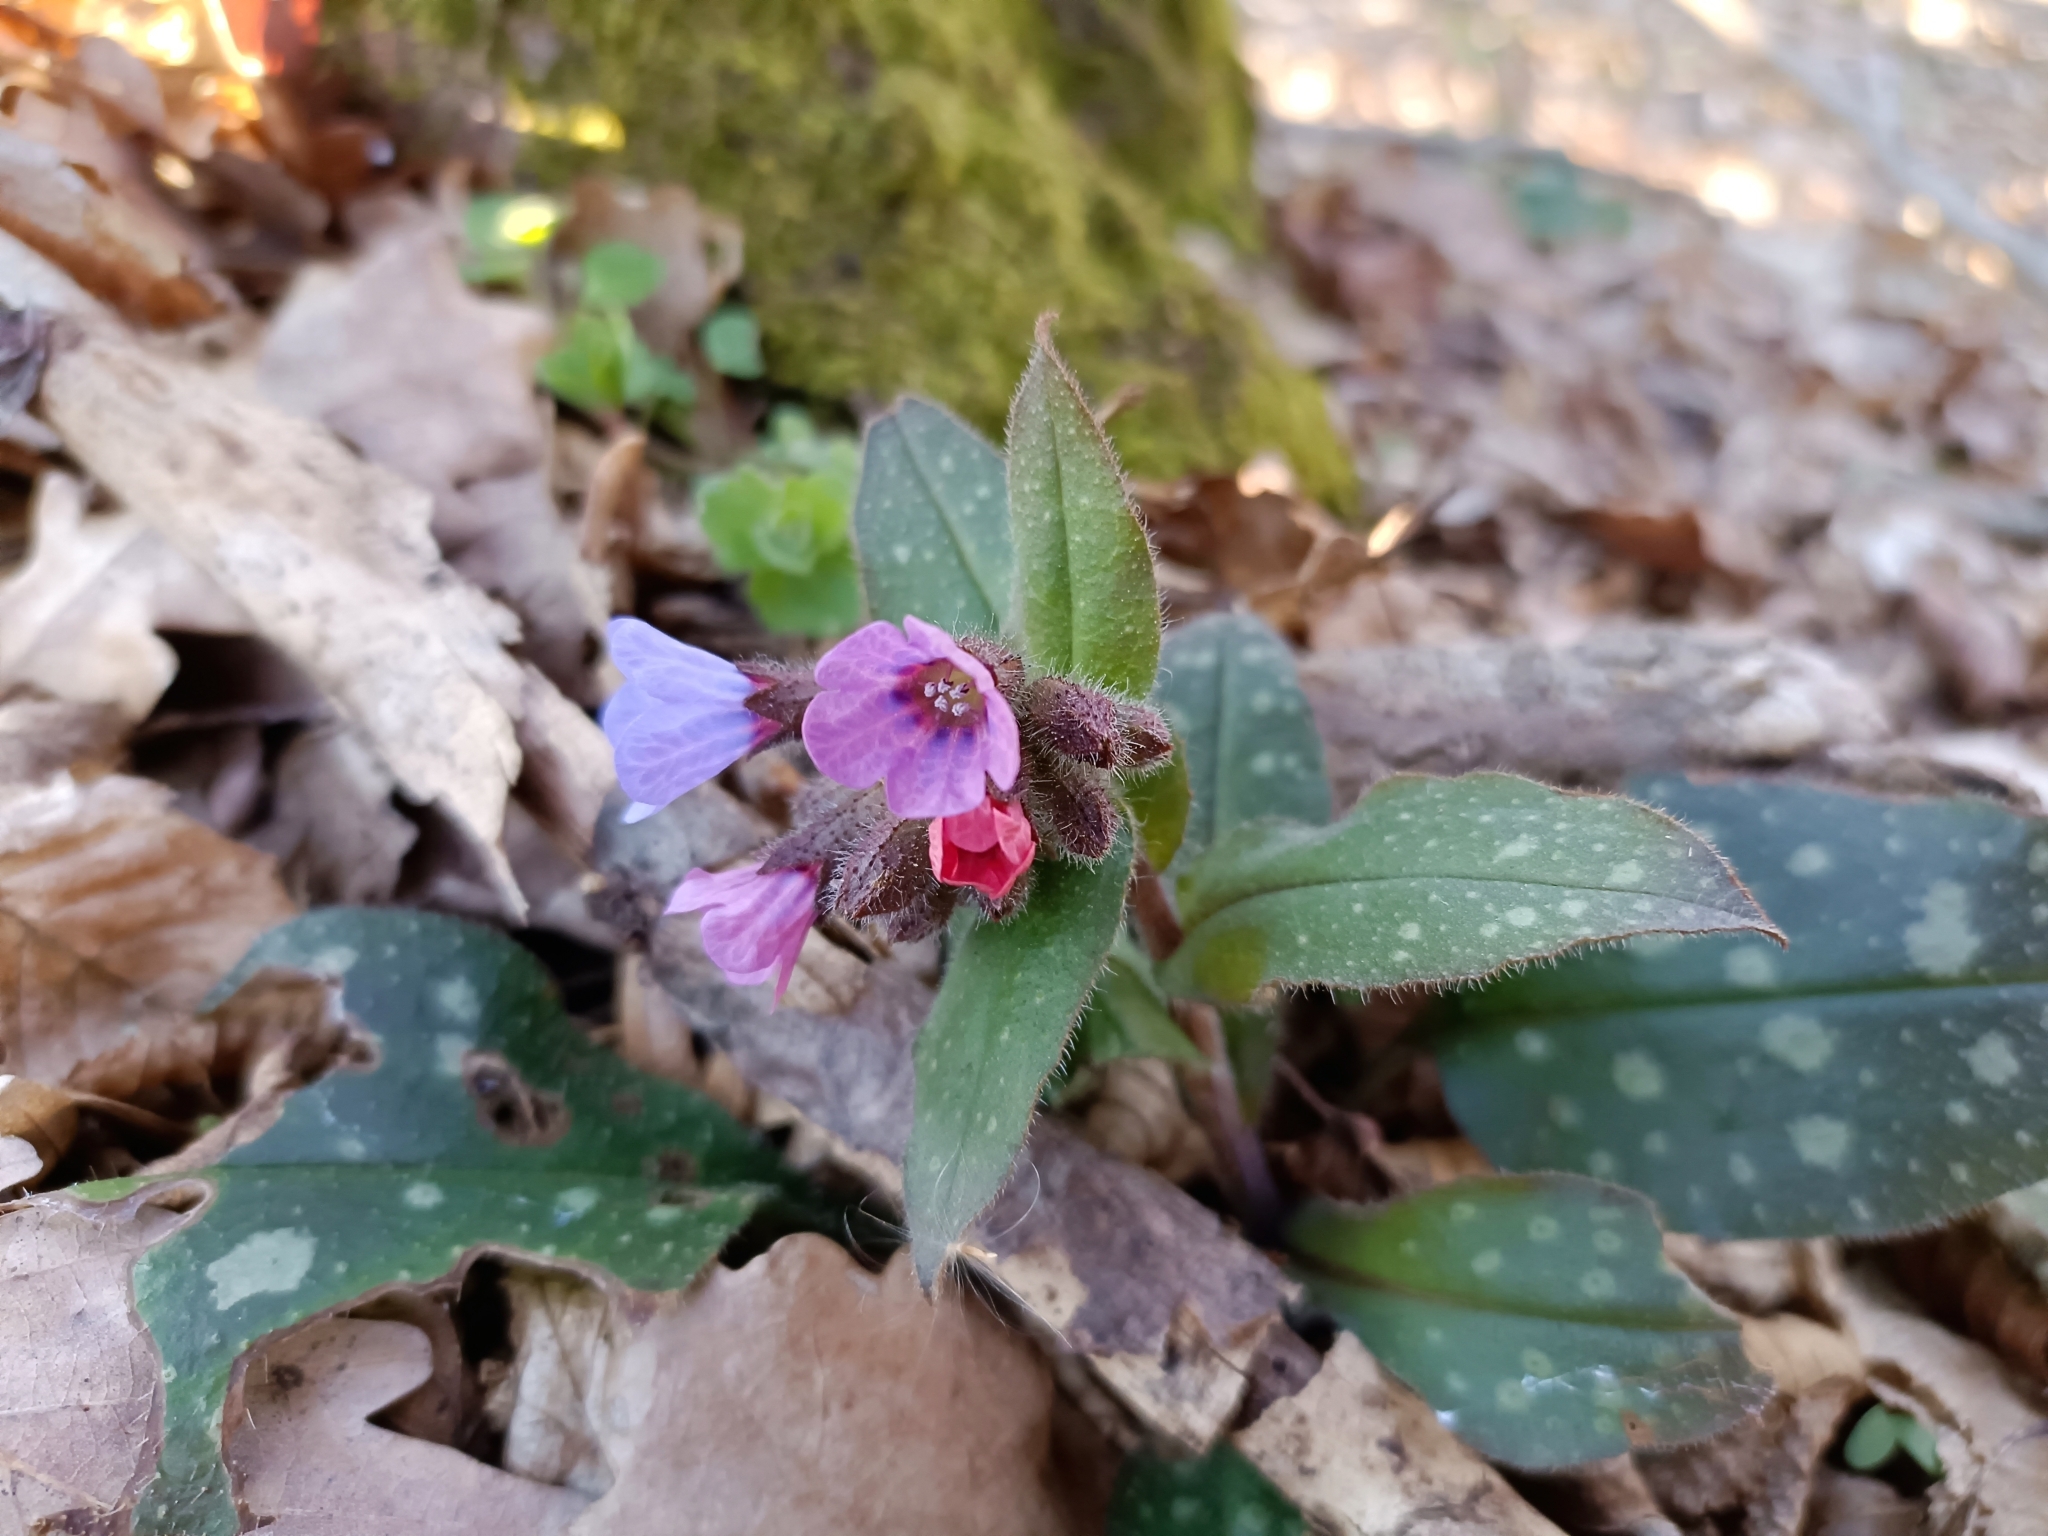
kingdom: Plantae
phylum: Tracheophyta
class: Magnoliopsida
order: Boraginales
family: Boraginaceae
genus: Pulmonaria
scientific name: Pulmonaria officinalis
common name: Lungwort
